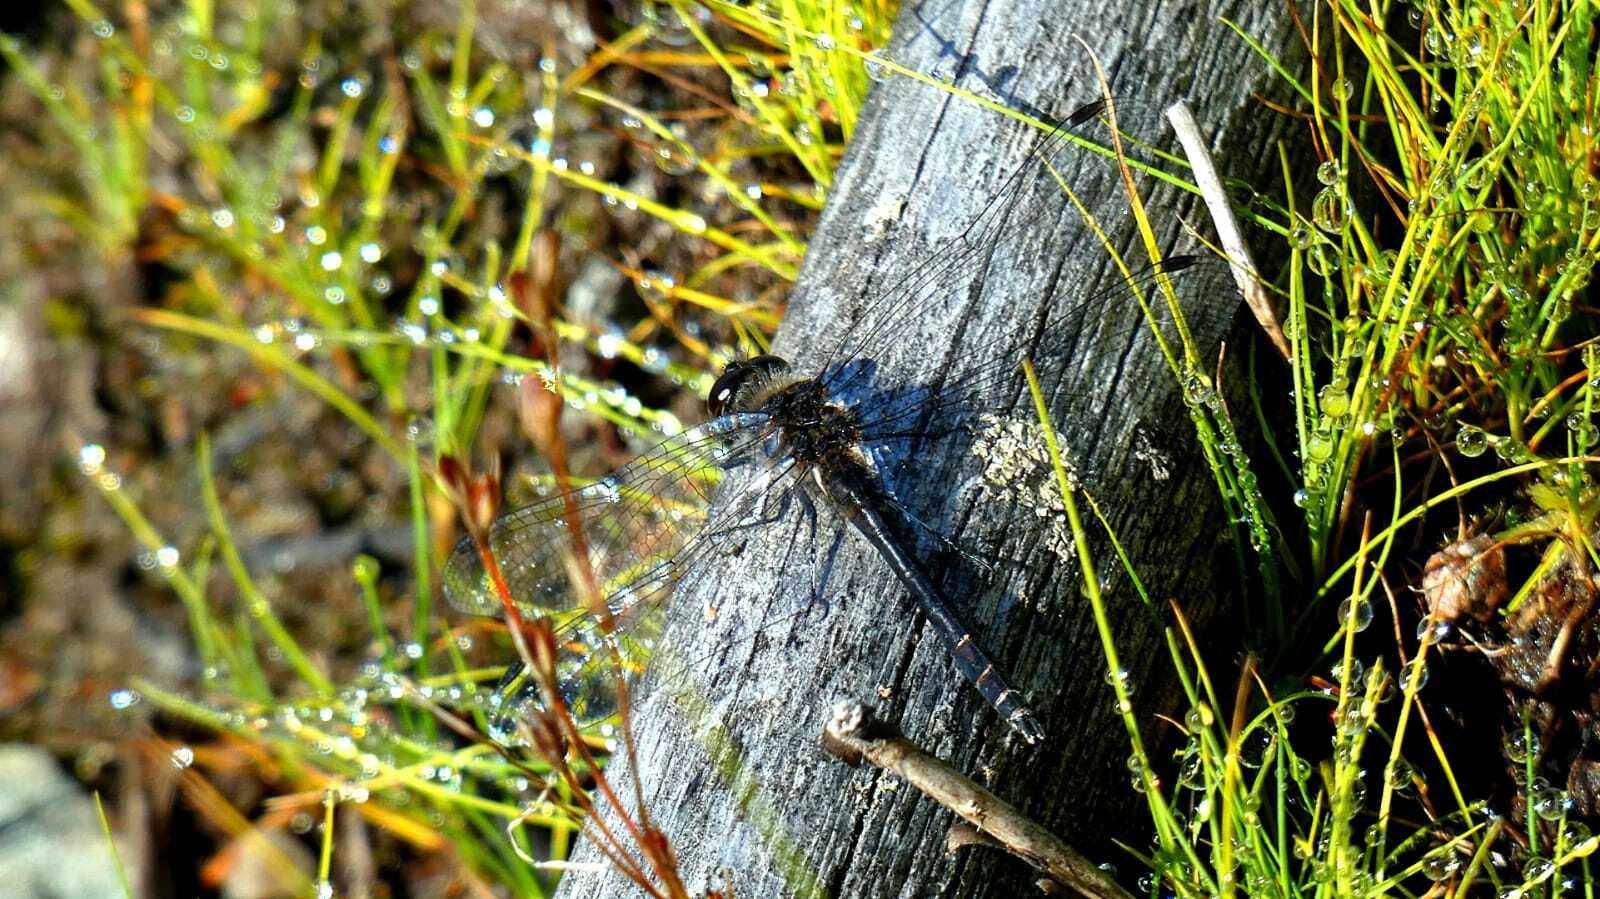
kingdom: Animalia
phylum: Arthropoda
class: Insecta
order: Odonata
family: Libellulidae
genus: Sympetrum
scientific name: Sympetrum danae
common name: Black darter
